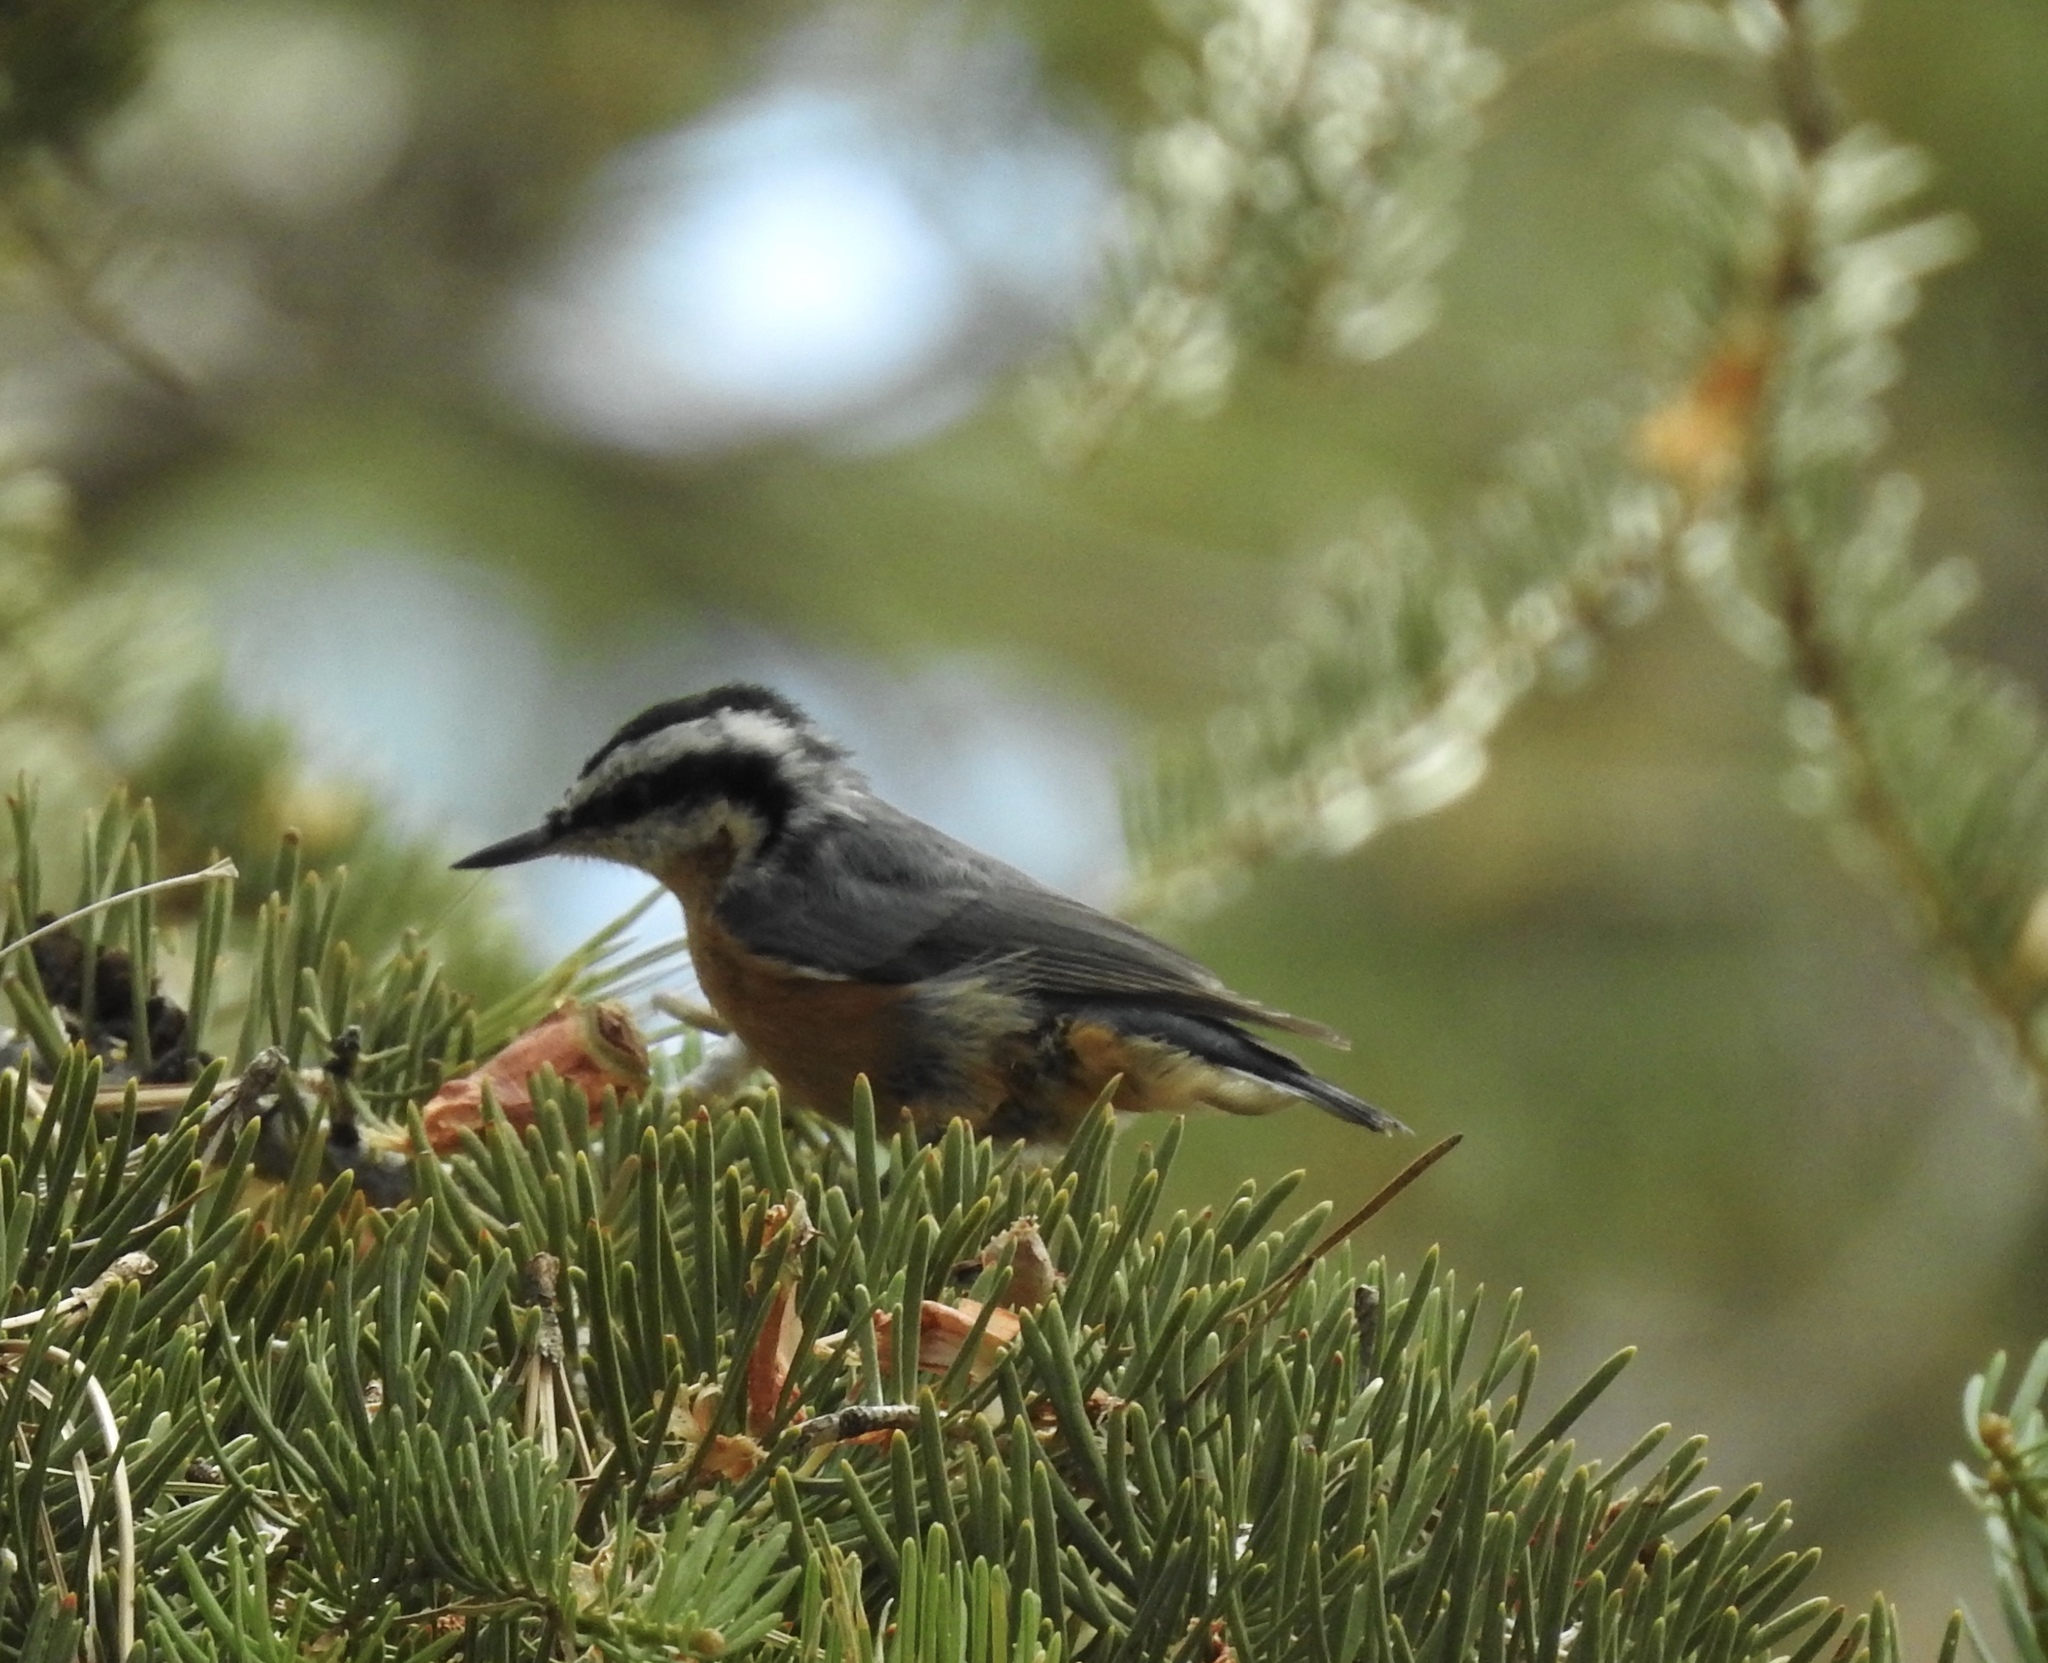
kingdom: Animalia
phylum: Chordata
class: Aves
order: Passeriformes
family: Sittidae
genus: Sitta
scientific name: Sitta canadensis
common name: Red-breasted nuthatch
